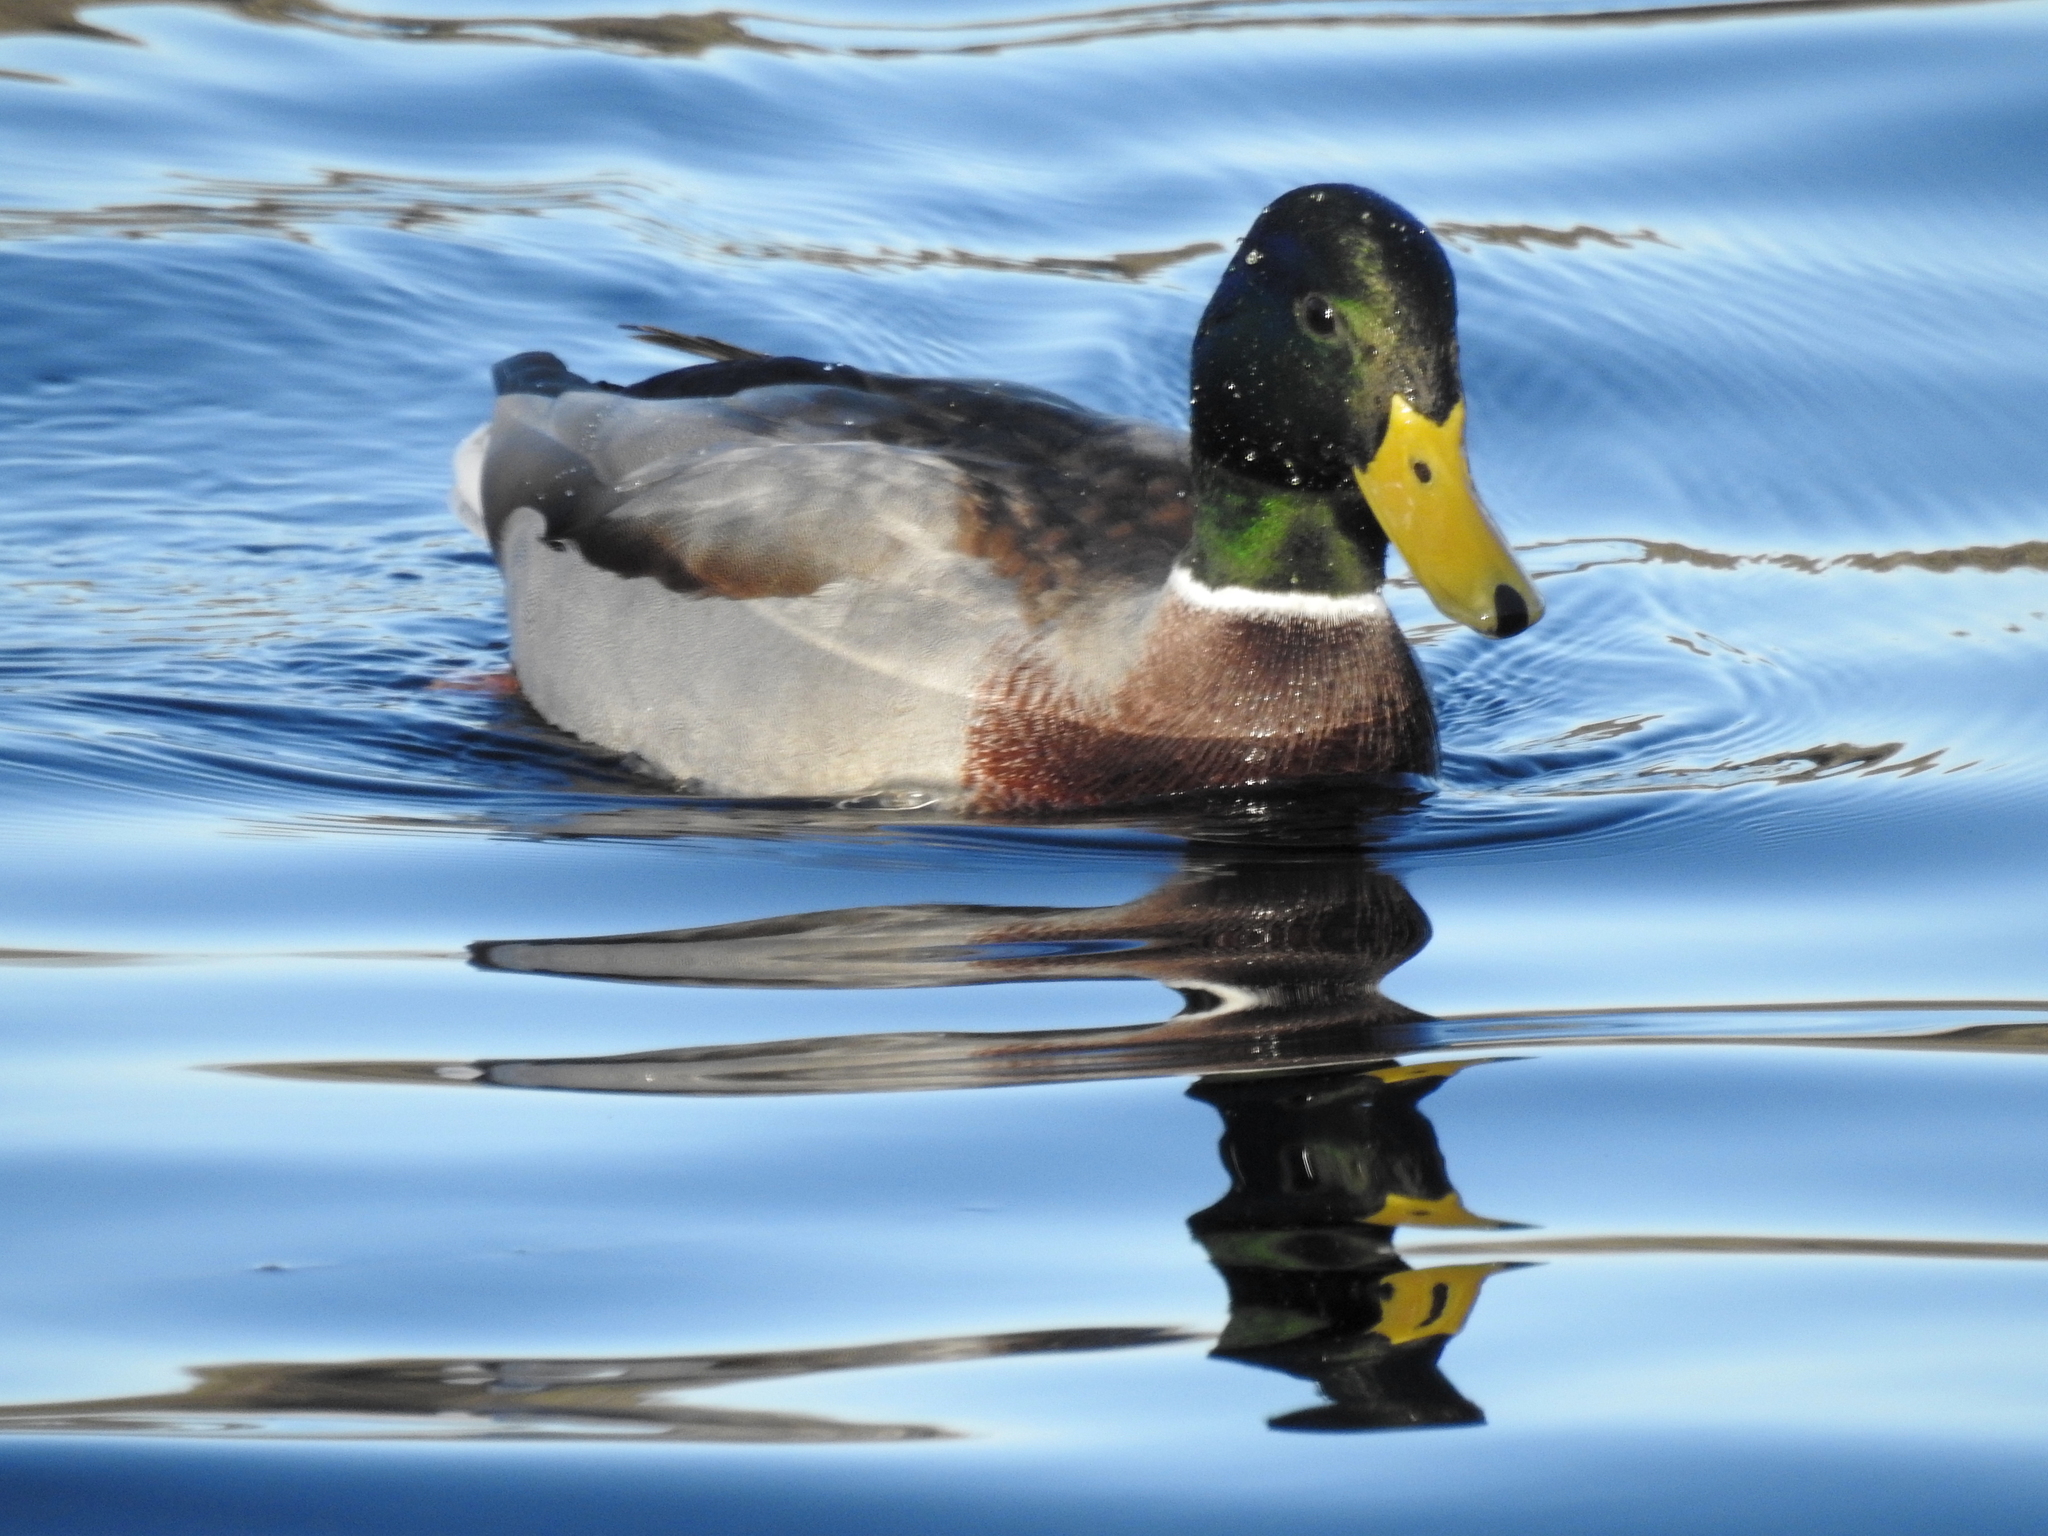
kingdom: Animalia
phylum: Chordata
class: Aves
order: Anseriformes
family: Anatidae
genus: Anas
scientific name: Anas platyrhynchos
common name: Mallard
